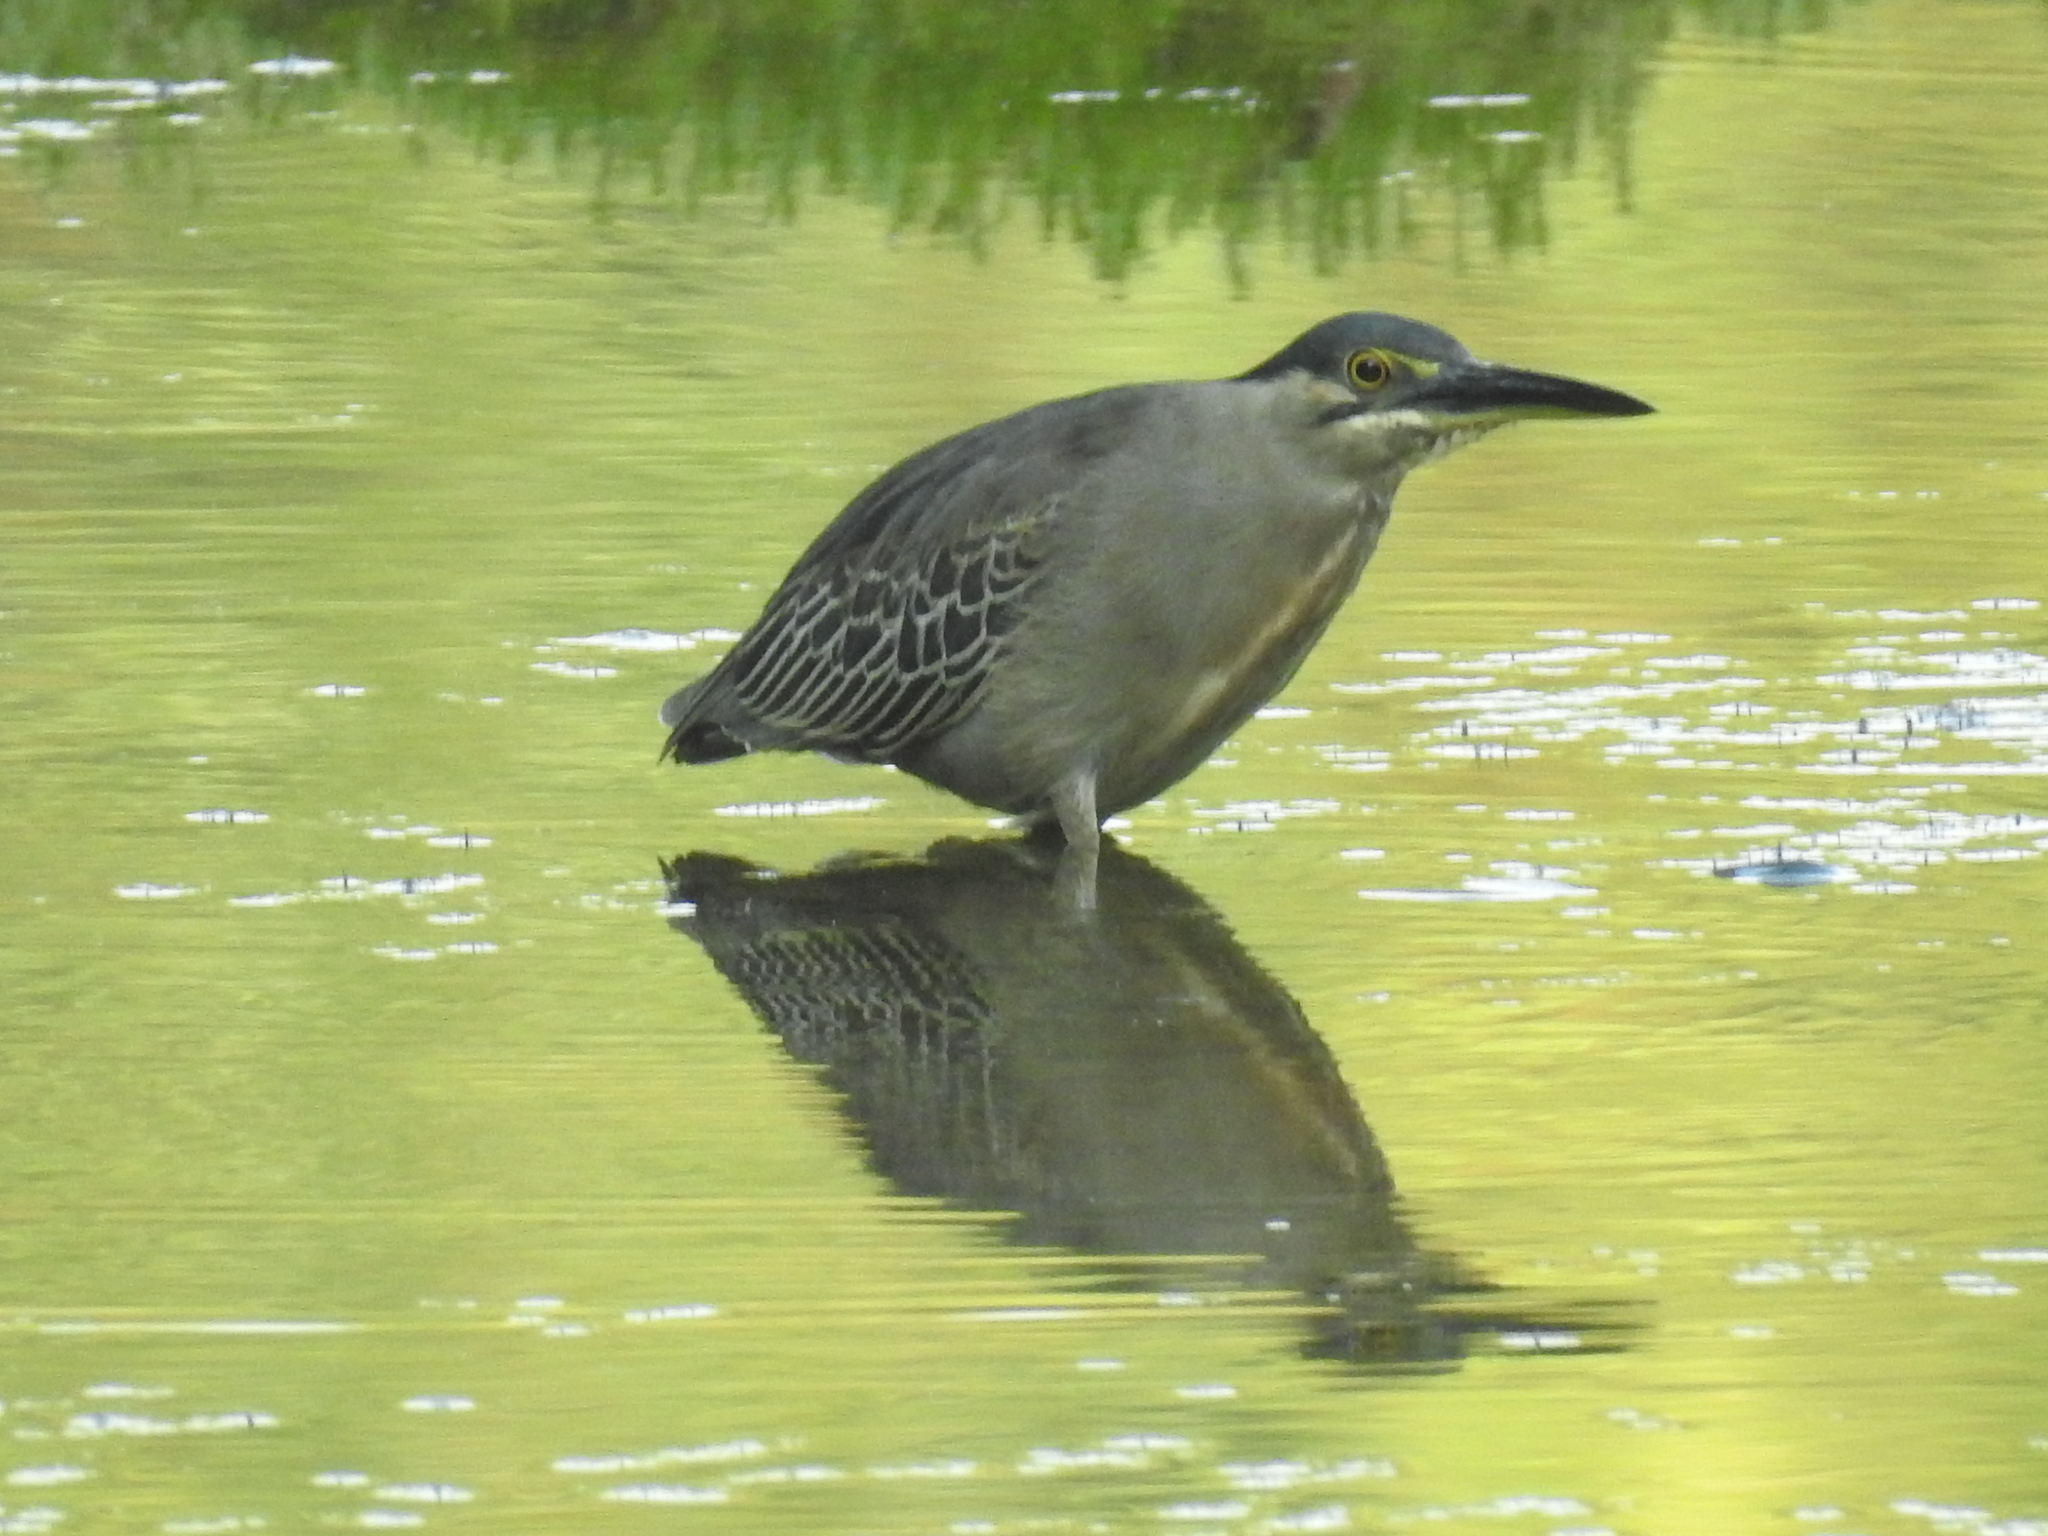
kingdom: Animalia
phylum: Chordata
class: Aves
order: Pelecaniformes
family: Ardeidae
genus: Butorides
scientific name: Butorides striata
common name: Striated heron
